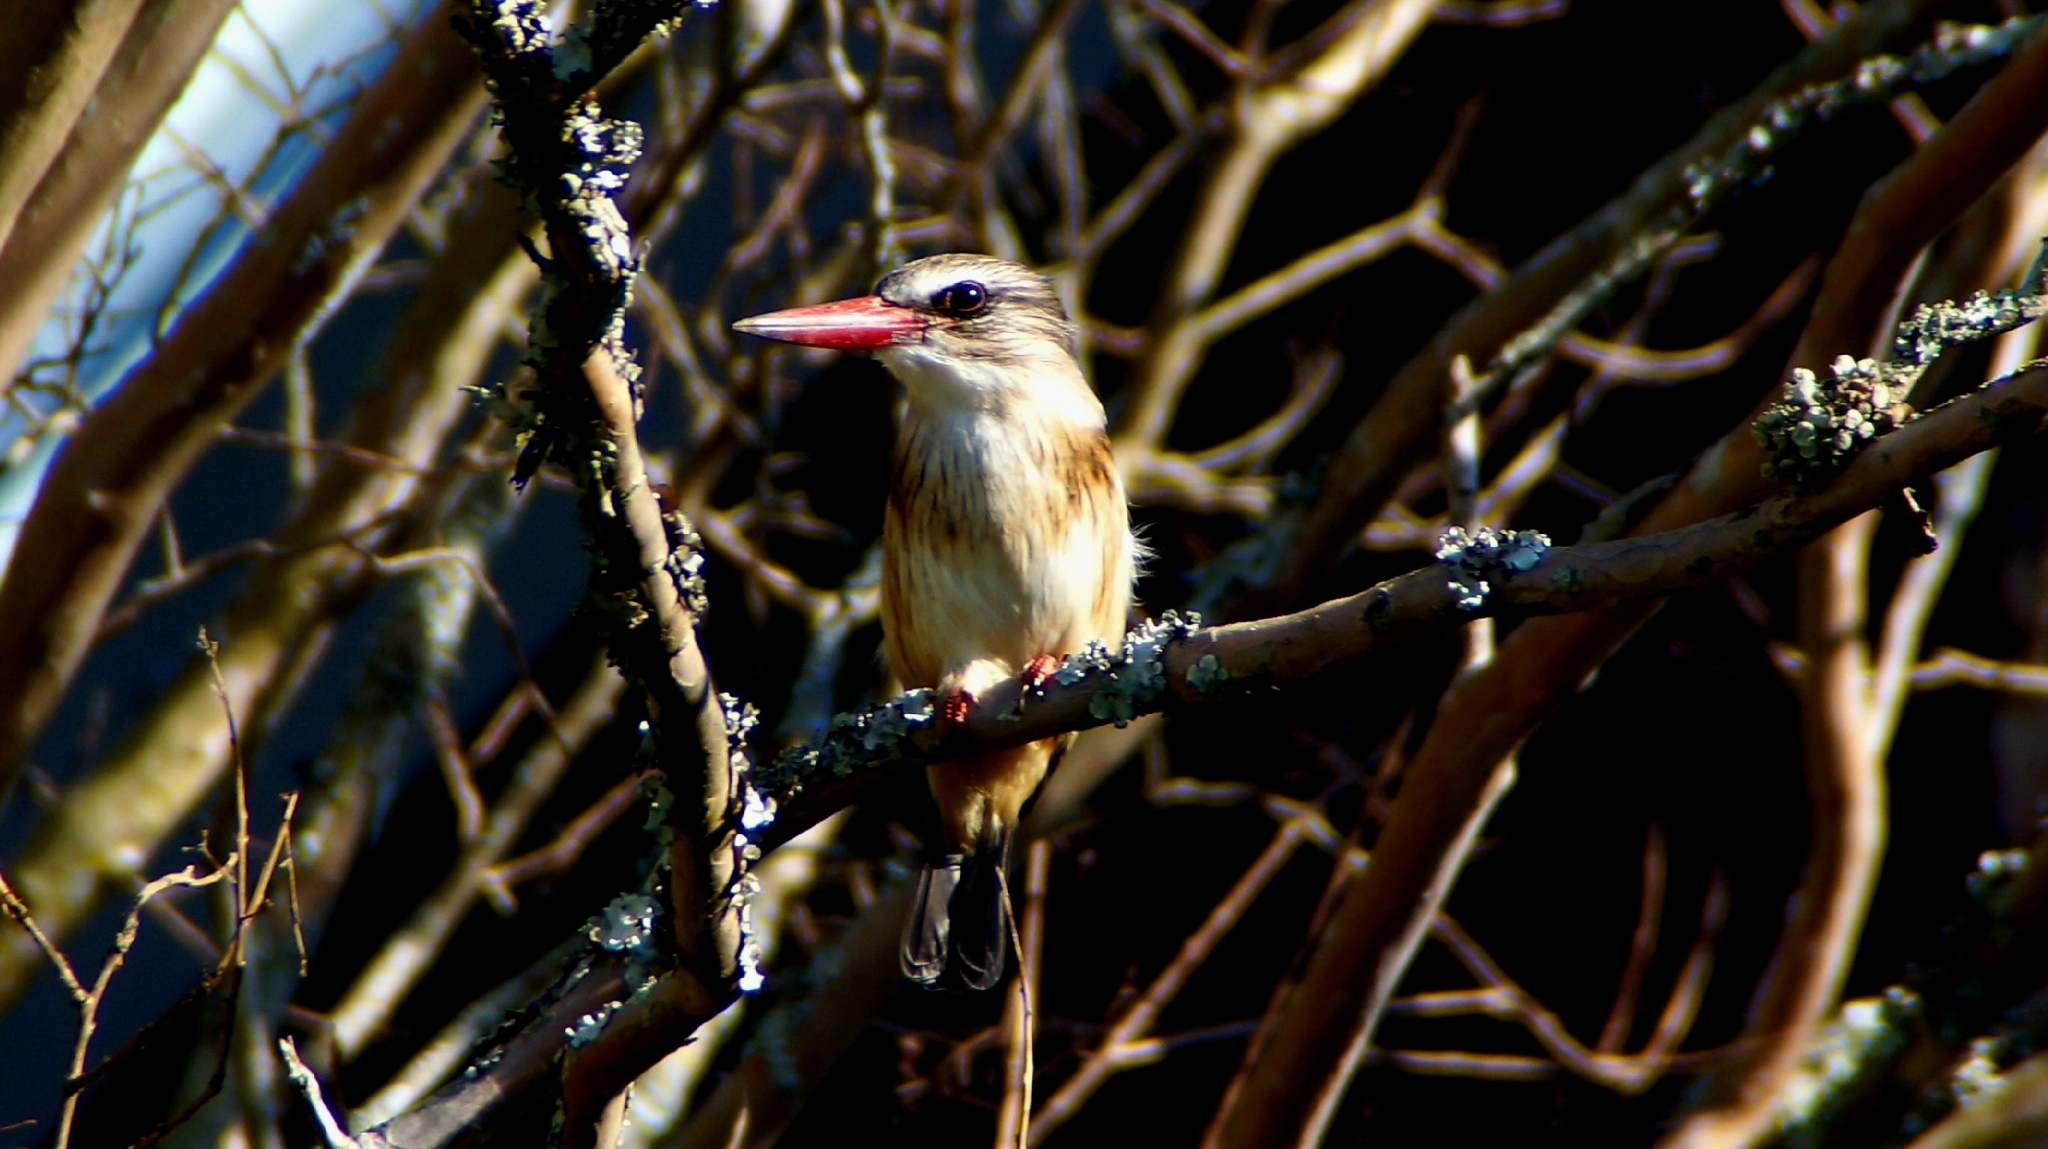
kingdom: Animalia
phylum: Chordata
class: Aves
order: Coraciiformes
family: Alcedinidae
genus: Halcyon
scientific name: Halcyon albiventris
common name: Brown-hooded kingfisher
